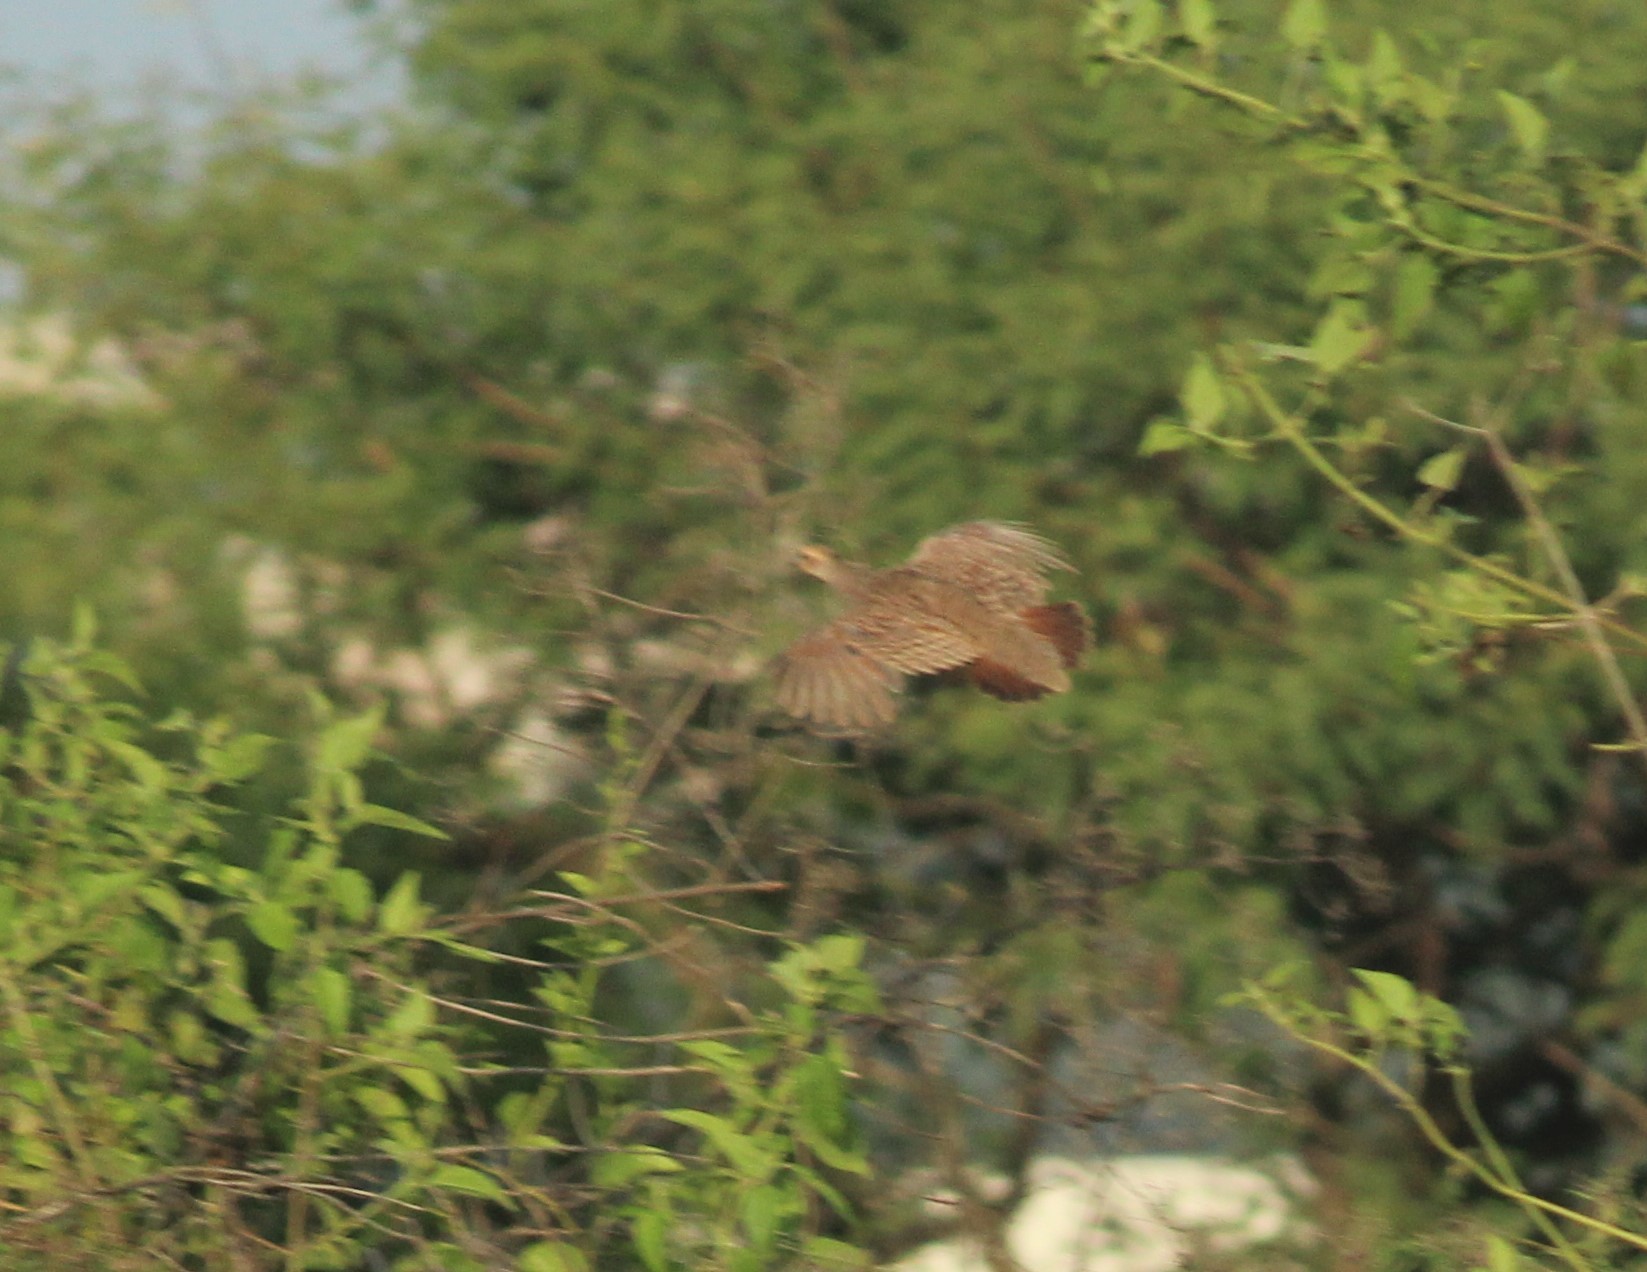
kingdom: Animalia
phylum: Chordata
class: Aves
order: Galliformes
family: Phasianidae
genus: Ortygornis
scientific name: Ortygornis pondicerianus
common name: Grey francolin
